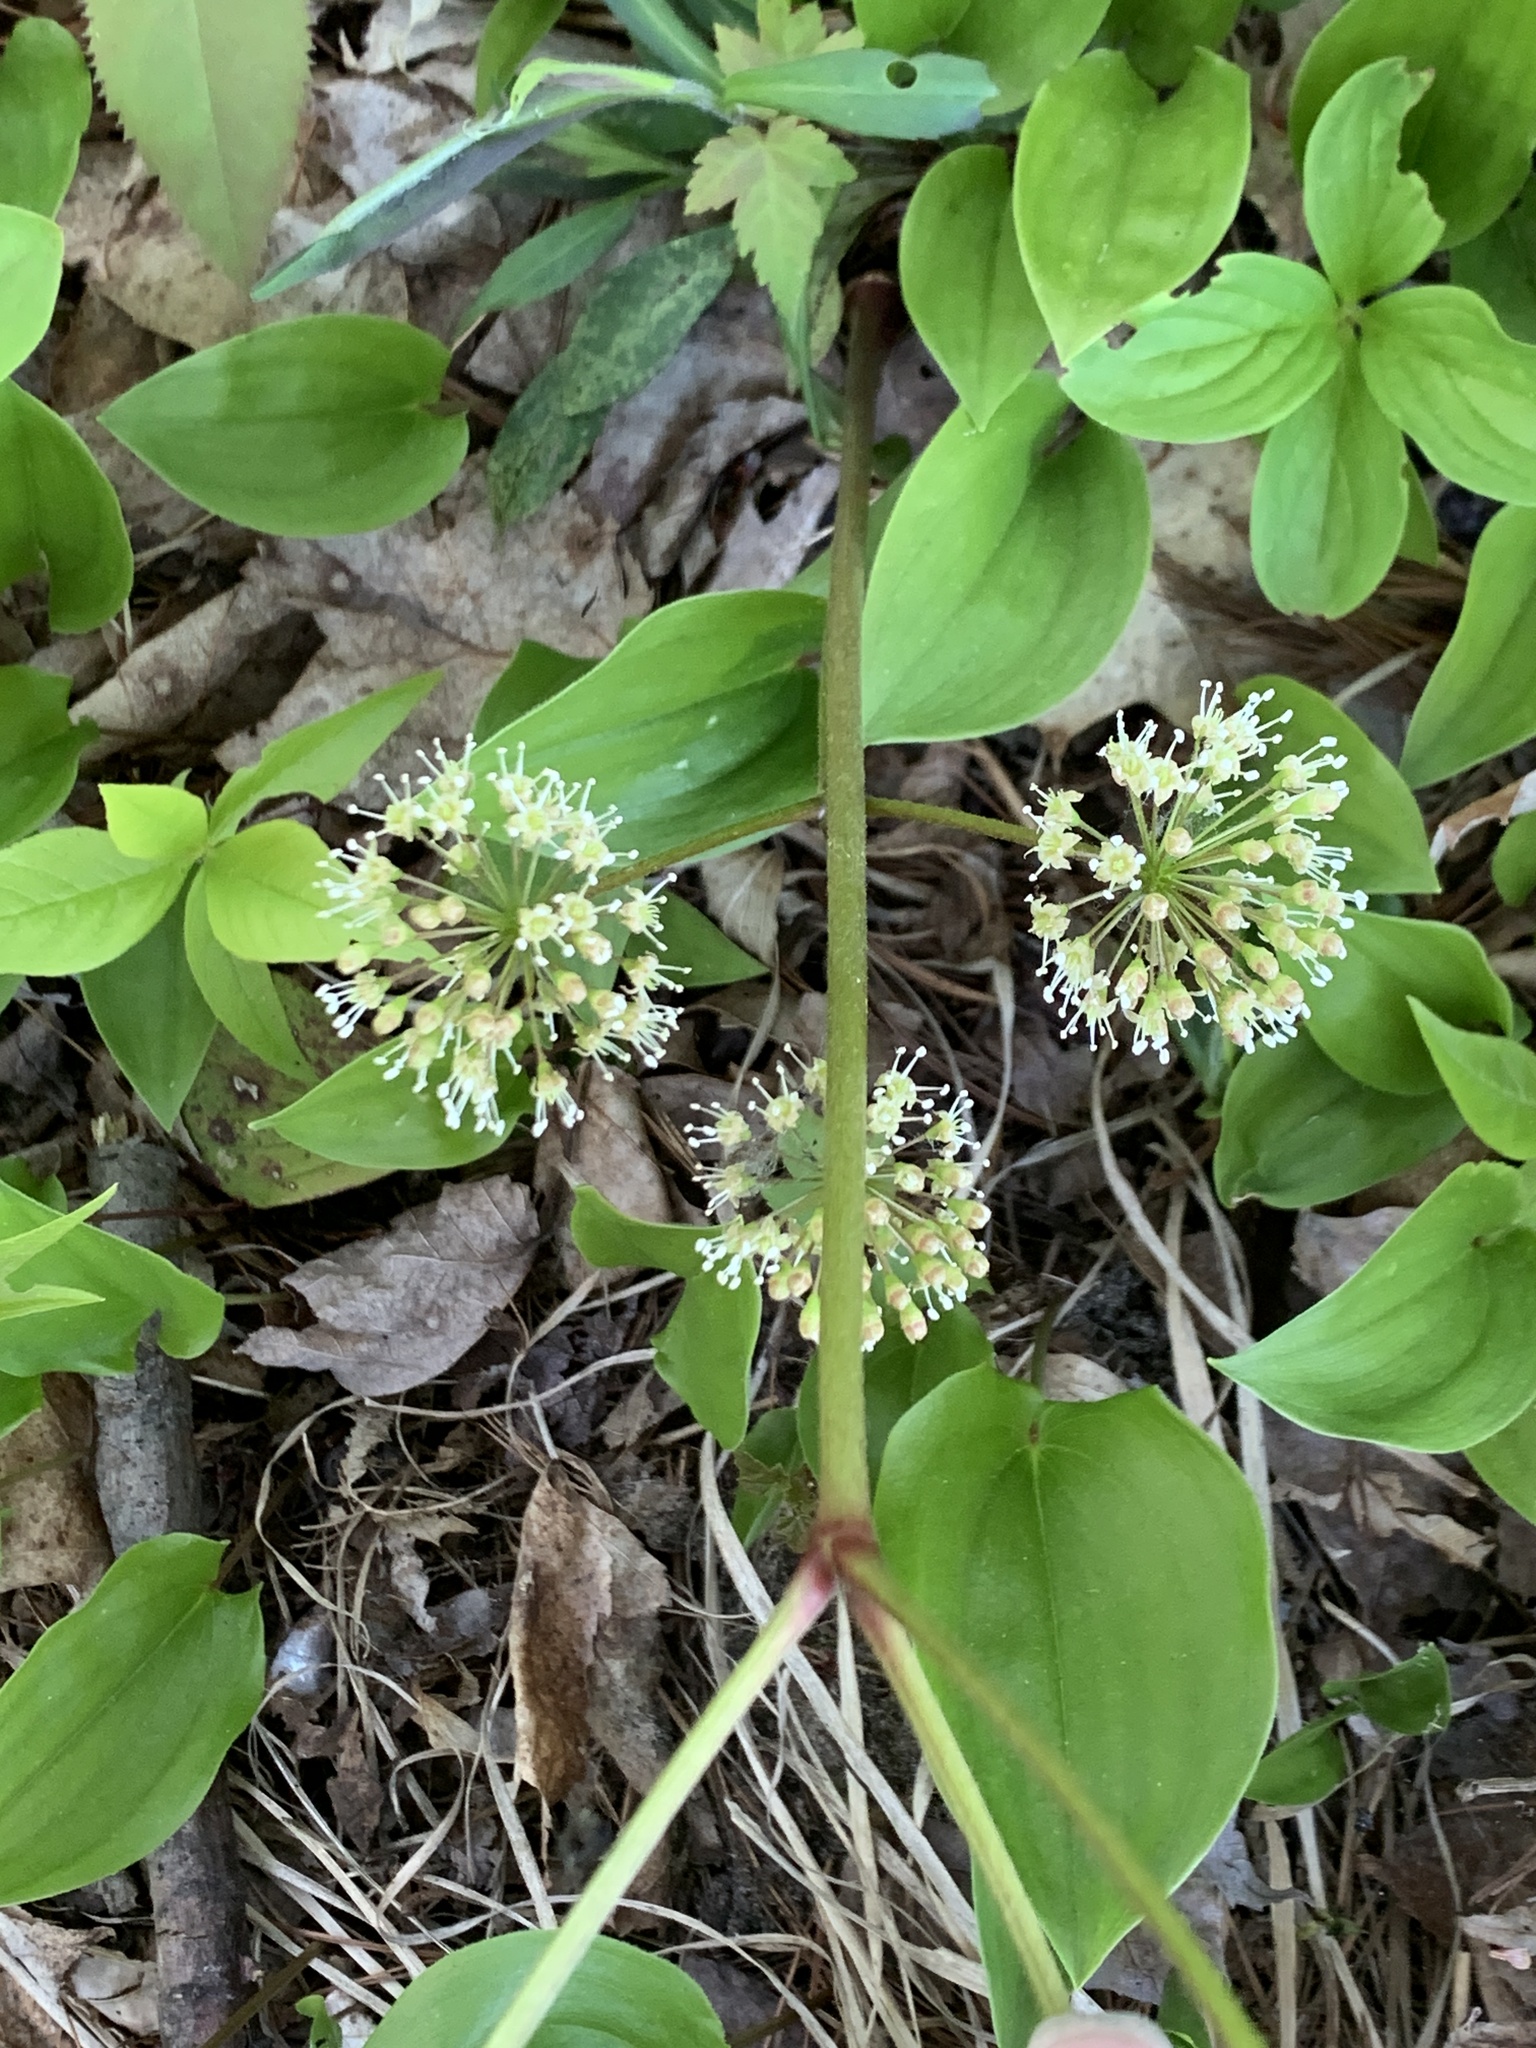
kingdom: Plantae
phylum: Tracheophyta
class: Magnoliopsida
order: Apiales
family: Araliaceae
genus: Aralia
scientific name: Aralia nudicaulis
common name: Wild sarsaparilla
